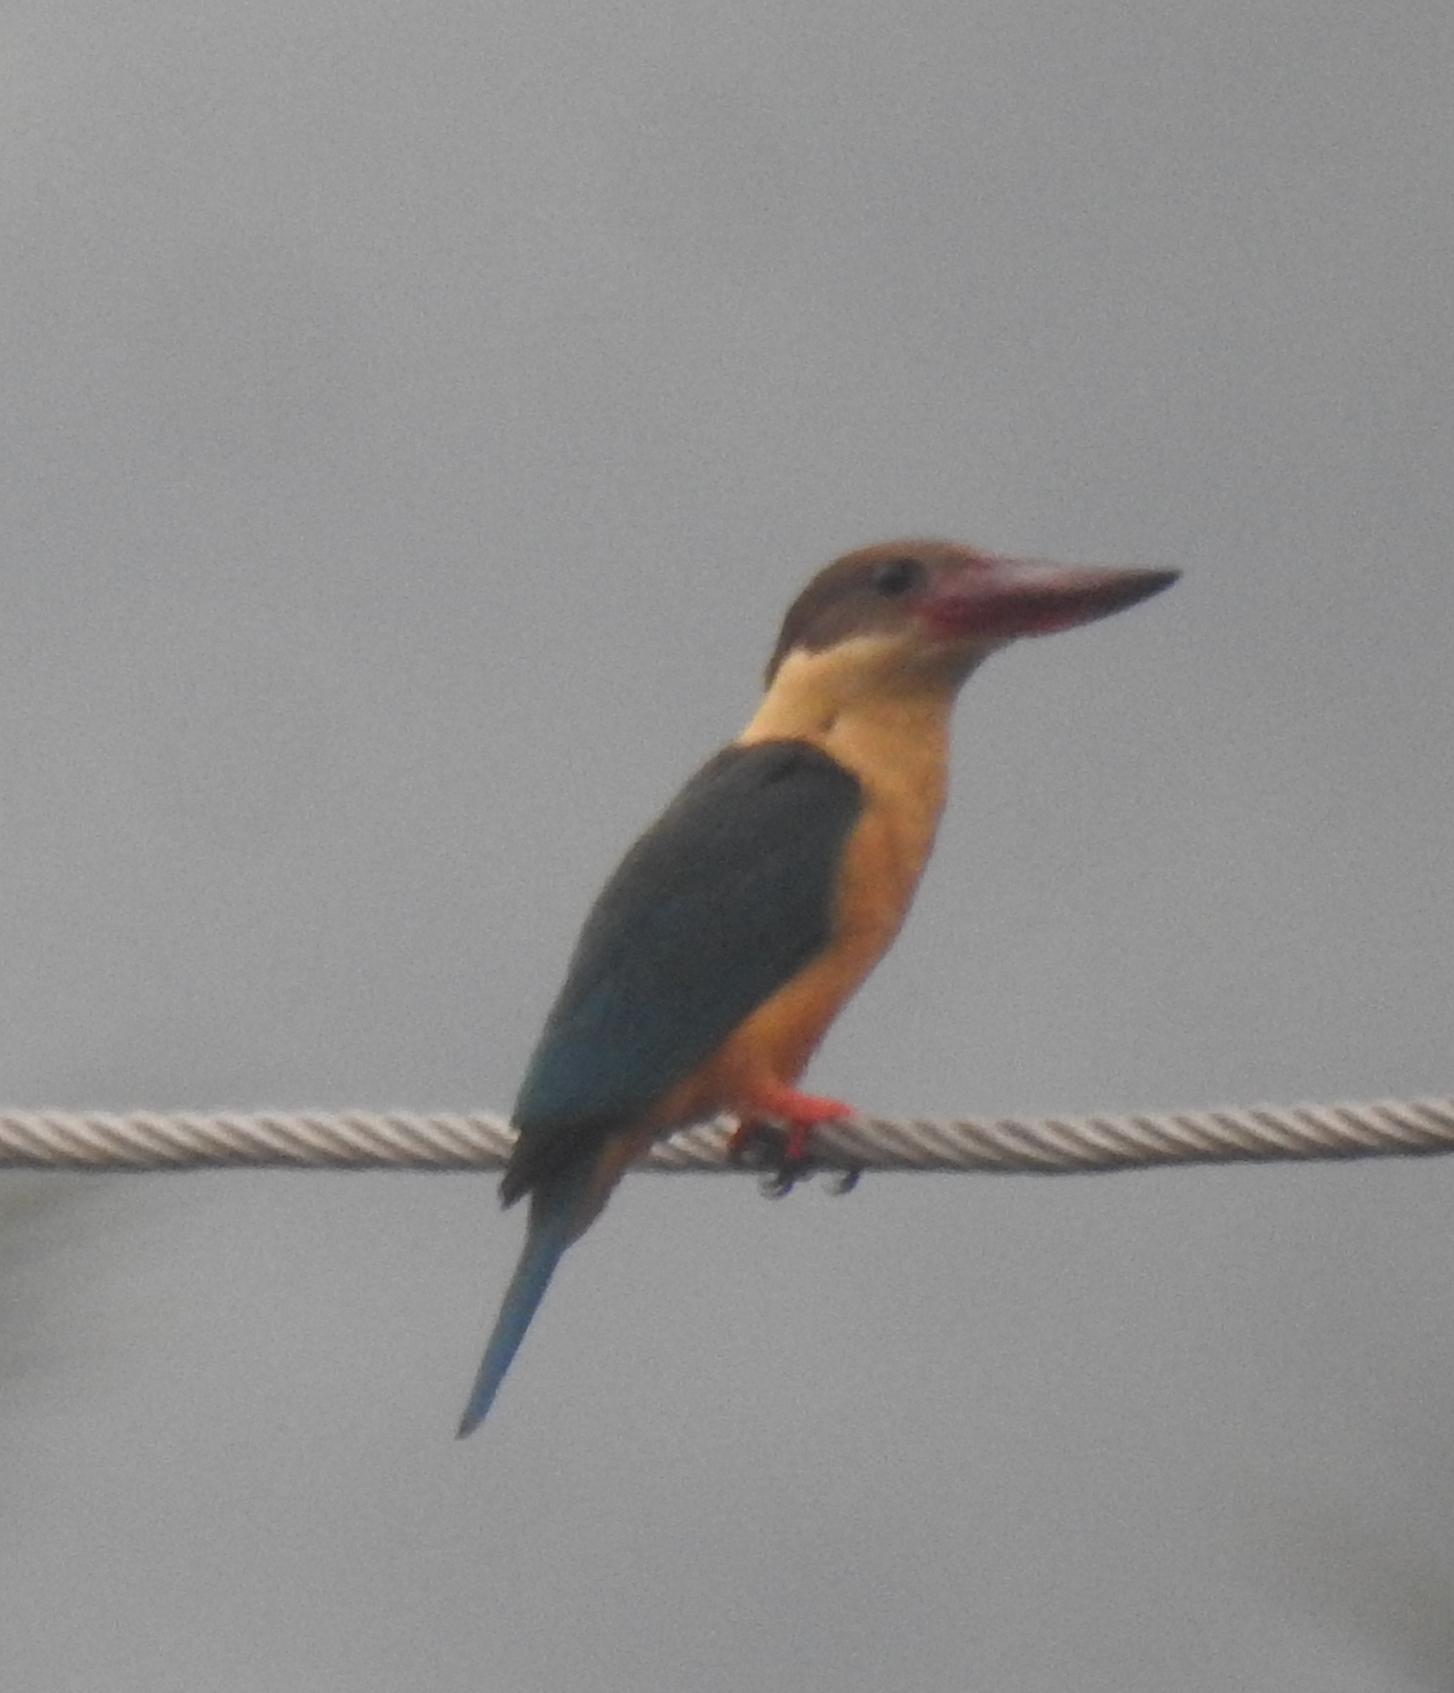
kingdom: Animalia
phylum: Chordata
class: Aves
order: Coraciiformes
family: Alcedinidae
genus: Pelargopsis
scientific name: Pelargopsis capensis
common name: Stork-billed kingfisher
